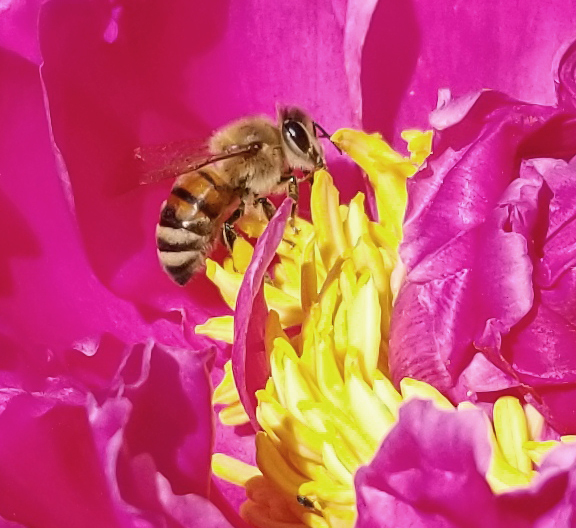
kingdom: Animalia
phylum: Arthropoda
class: Insecta
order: Hymenoptera
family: Apidae
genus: Apis
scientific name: Apis mellifera
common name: Honey bee
